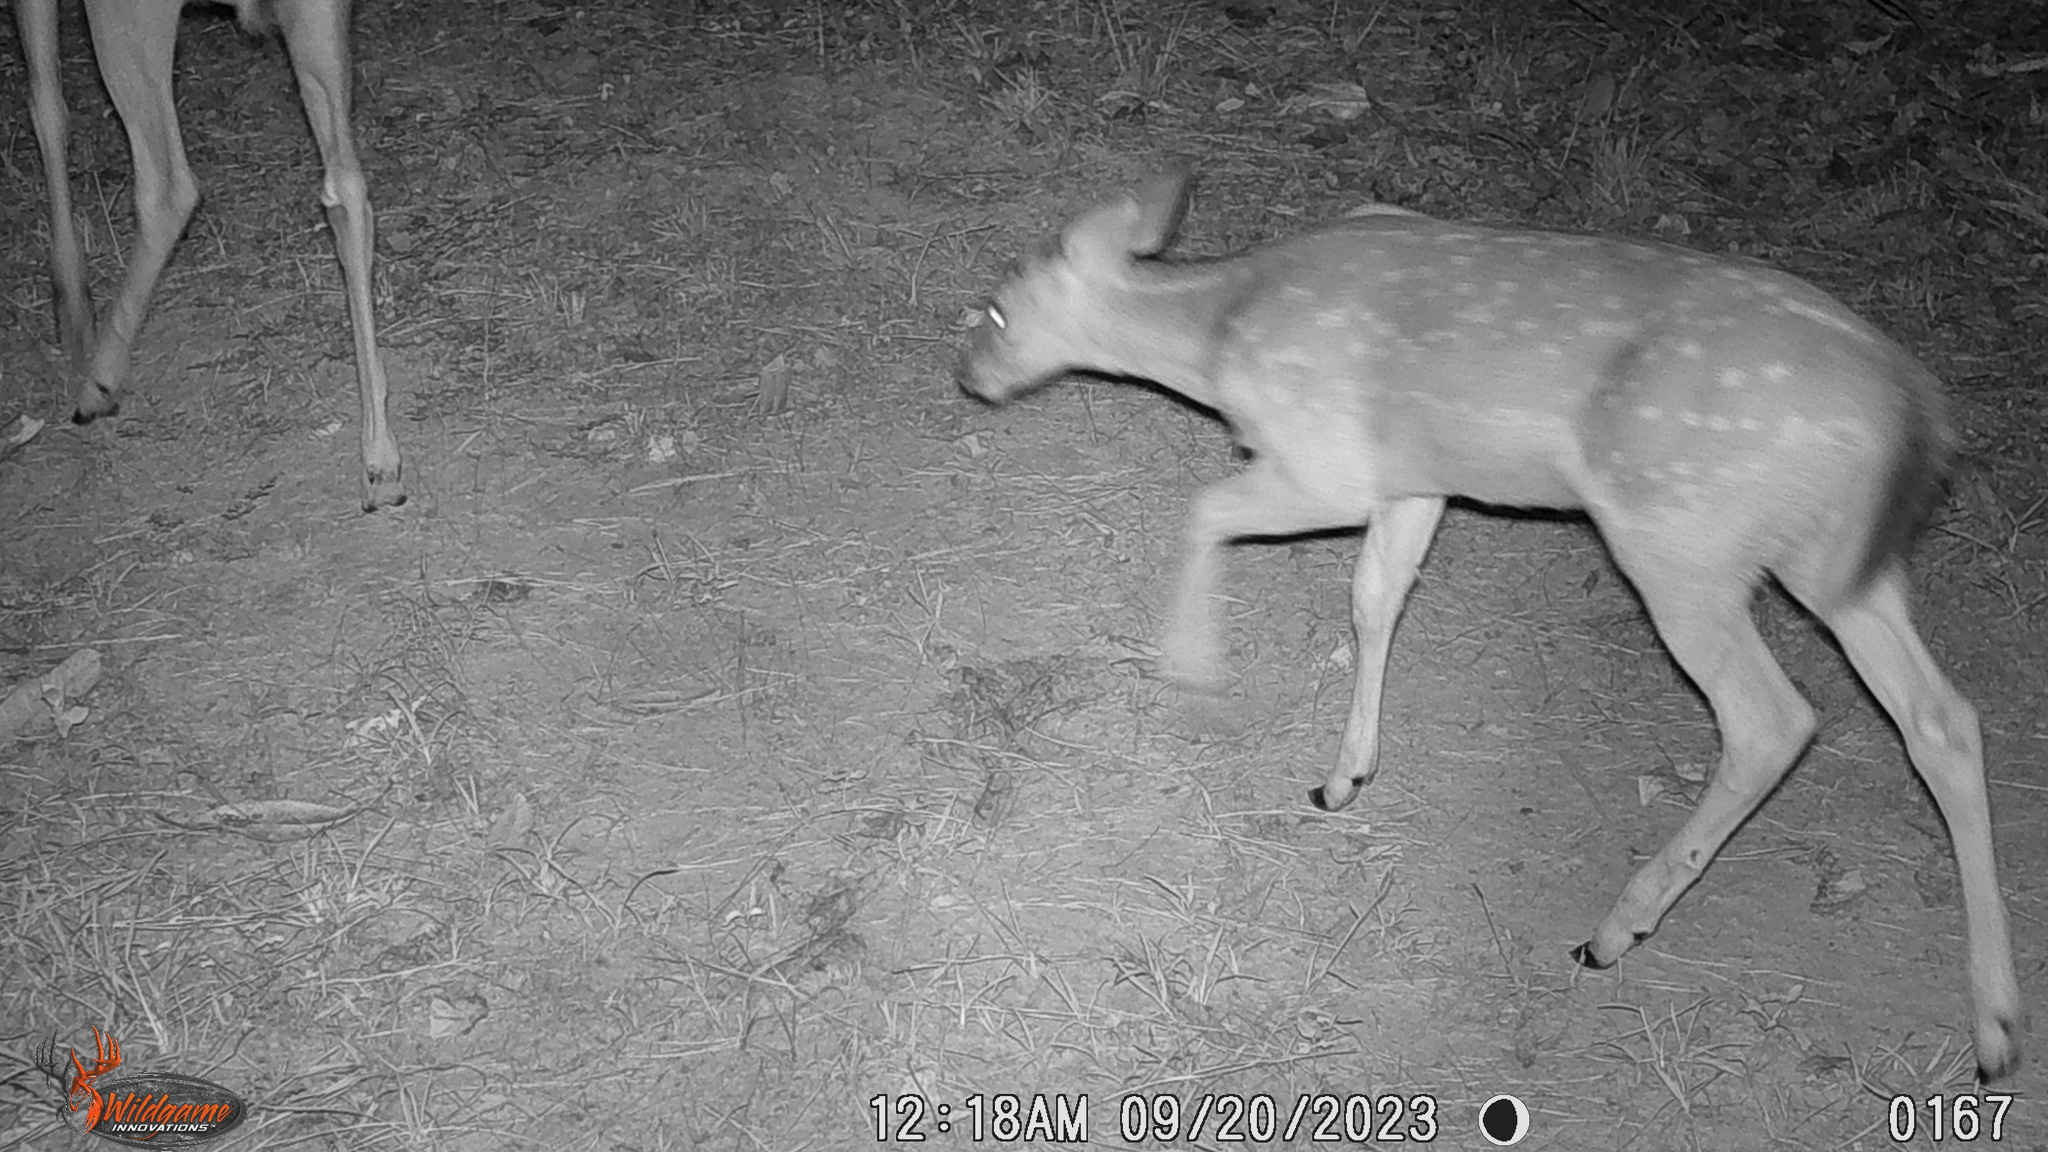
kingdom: Animalia
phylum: Chordata
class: Mammalia
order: Artiodactyla
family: Cervidae
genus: Odocoileus
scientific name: Odocoileus virginianus
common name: White-tailed deer
